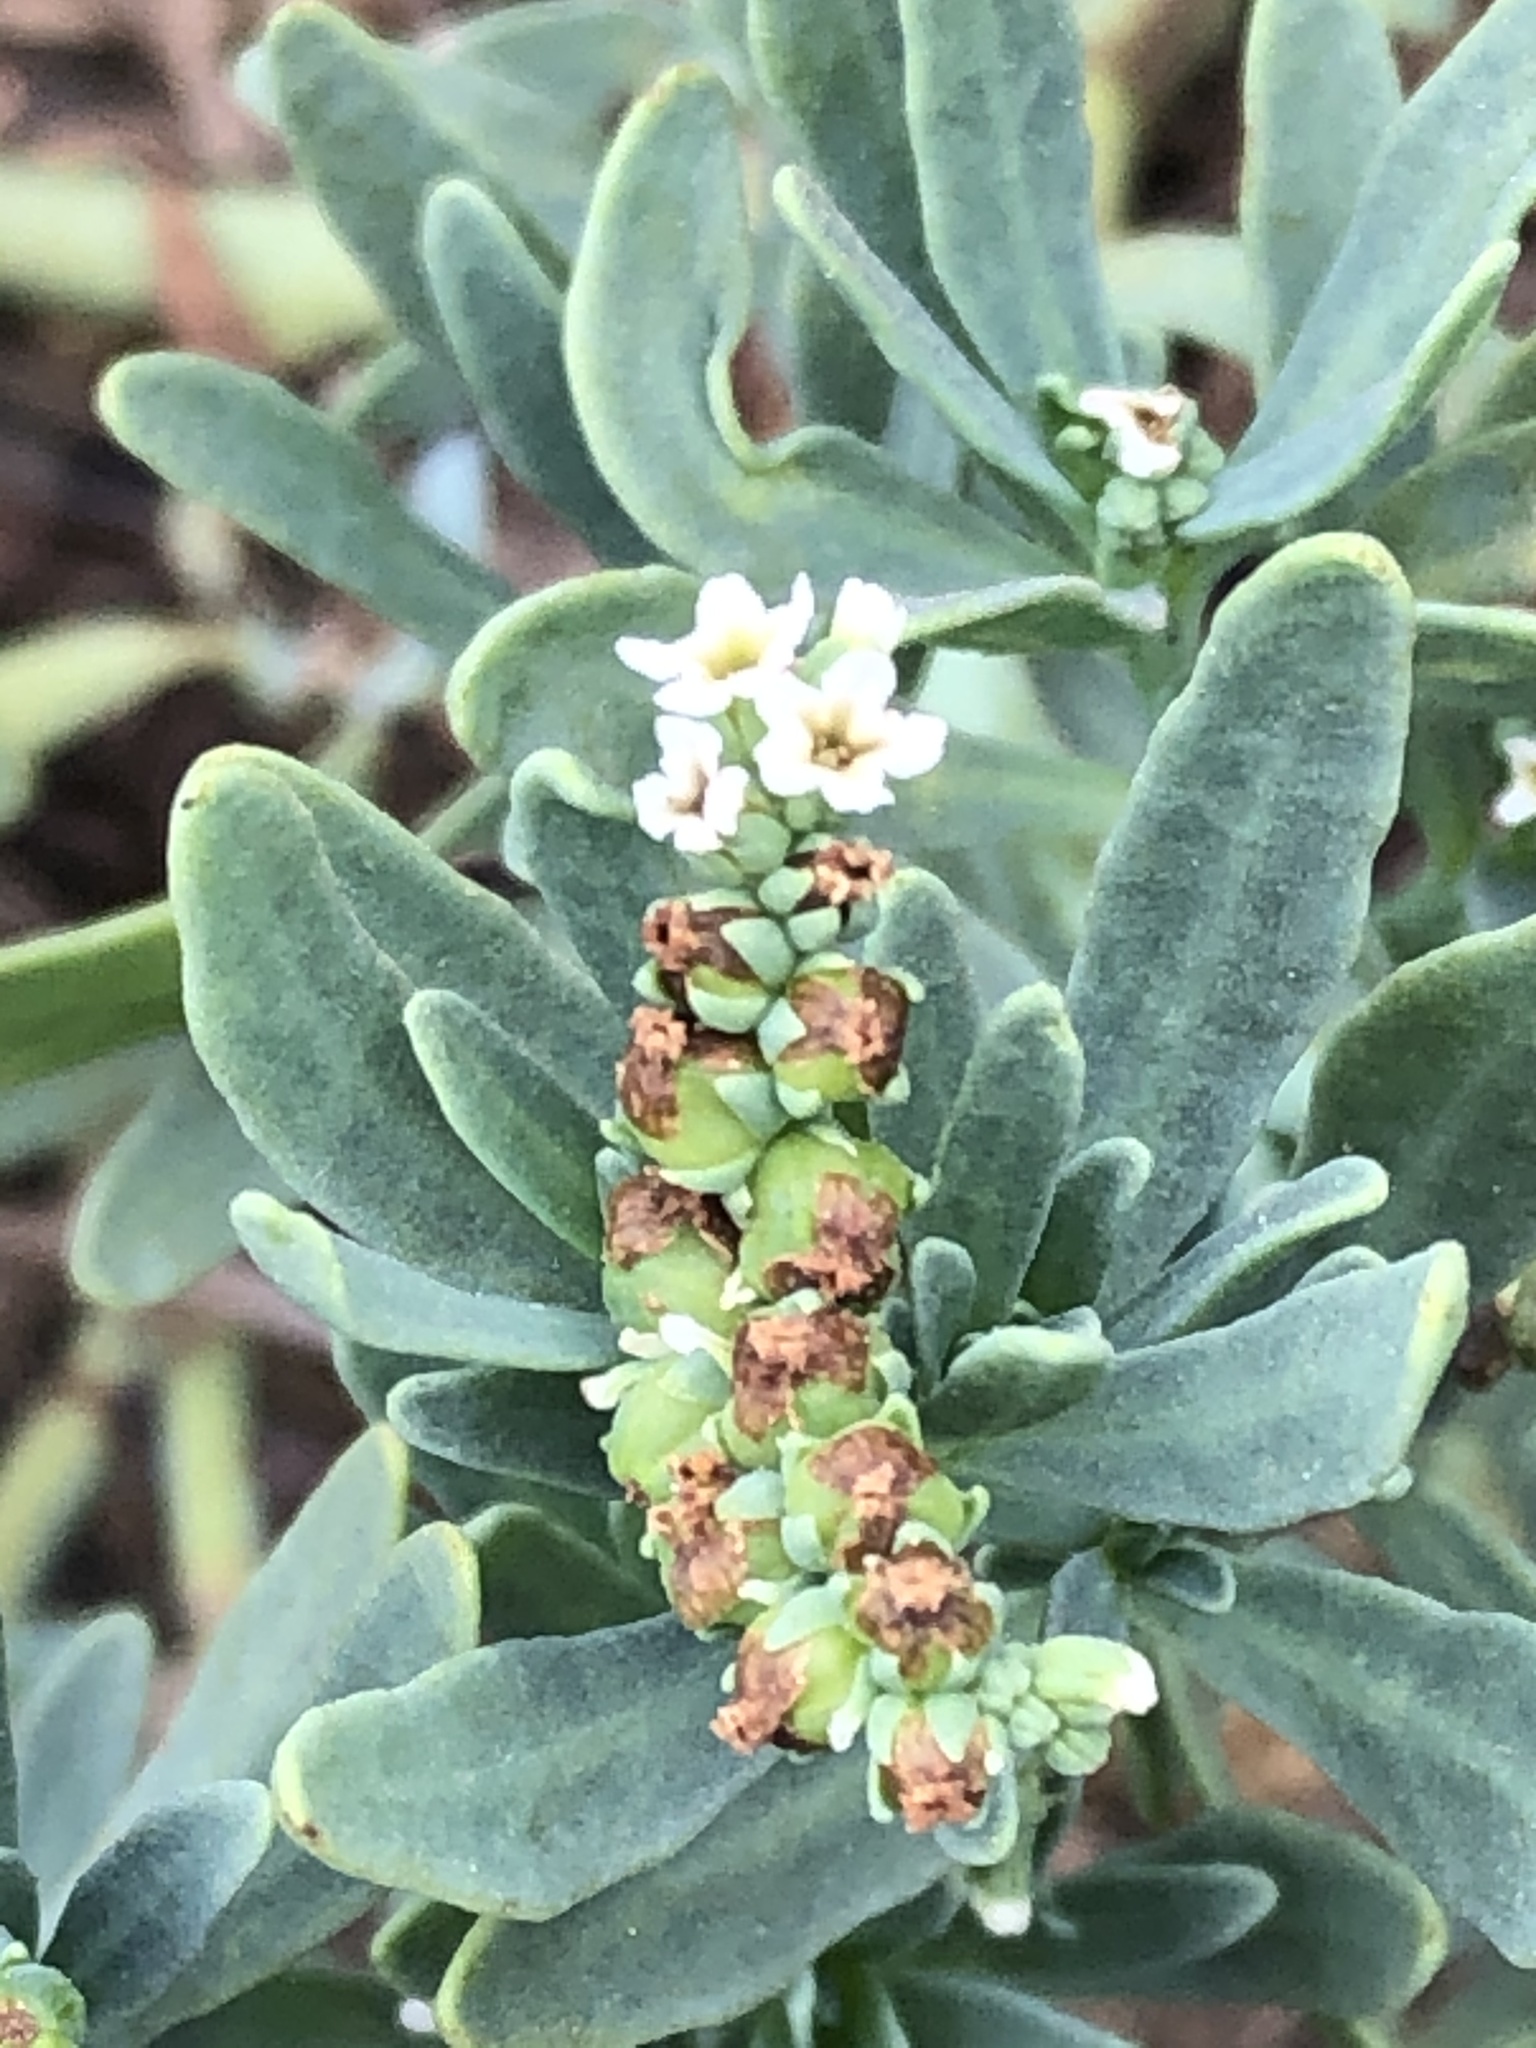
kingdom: Plantae
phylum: Tracheophyta
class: Magnoliopsida
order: Boraginales
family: Heliotropiaceae
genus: Heliotropium
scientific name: Heliotropium curassavicum
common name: Seaside heliotrope
